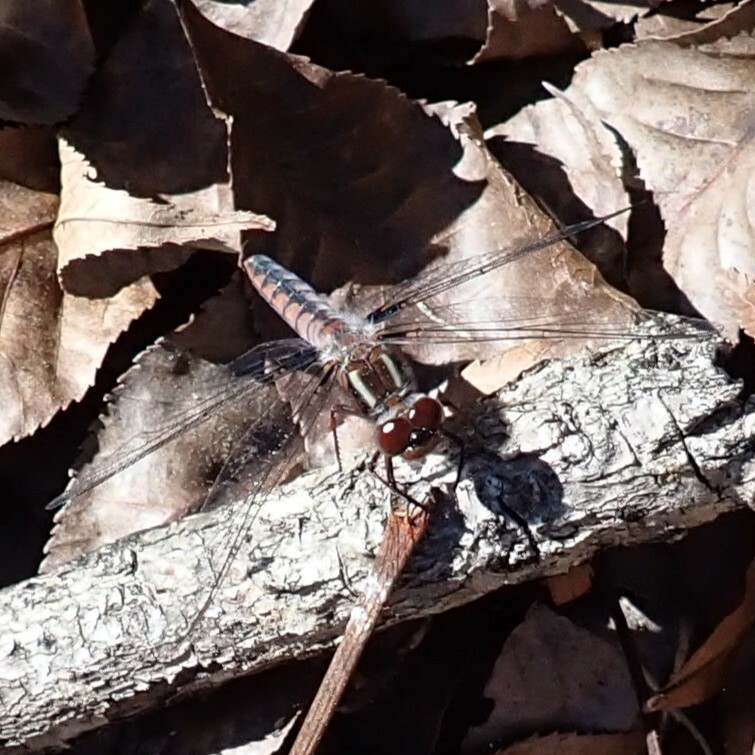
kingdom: Animalia
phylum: Arthropoda
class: Insecta
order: Odonata
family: Libellulidae
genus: Ladona
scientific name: Ladona deplanata
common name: Blue corporal
